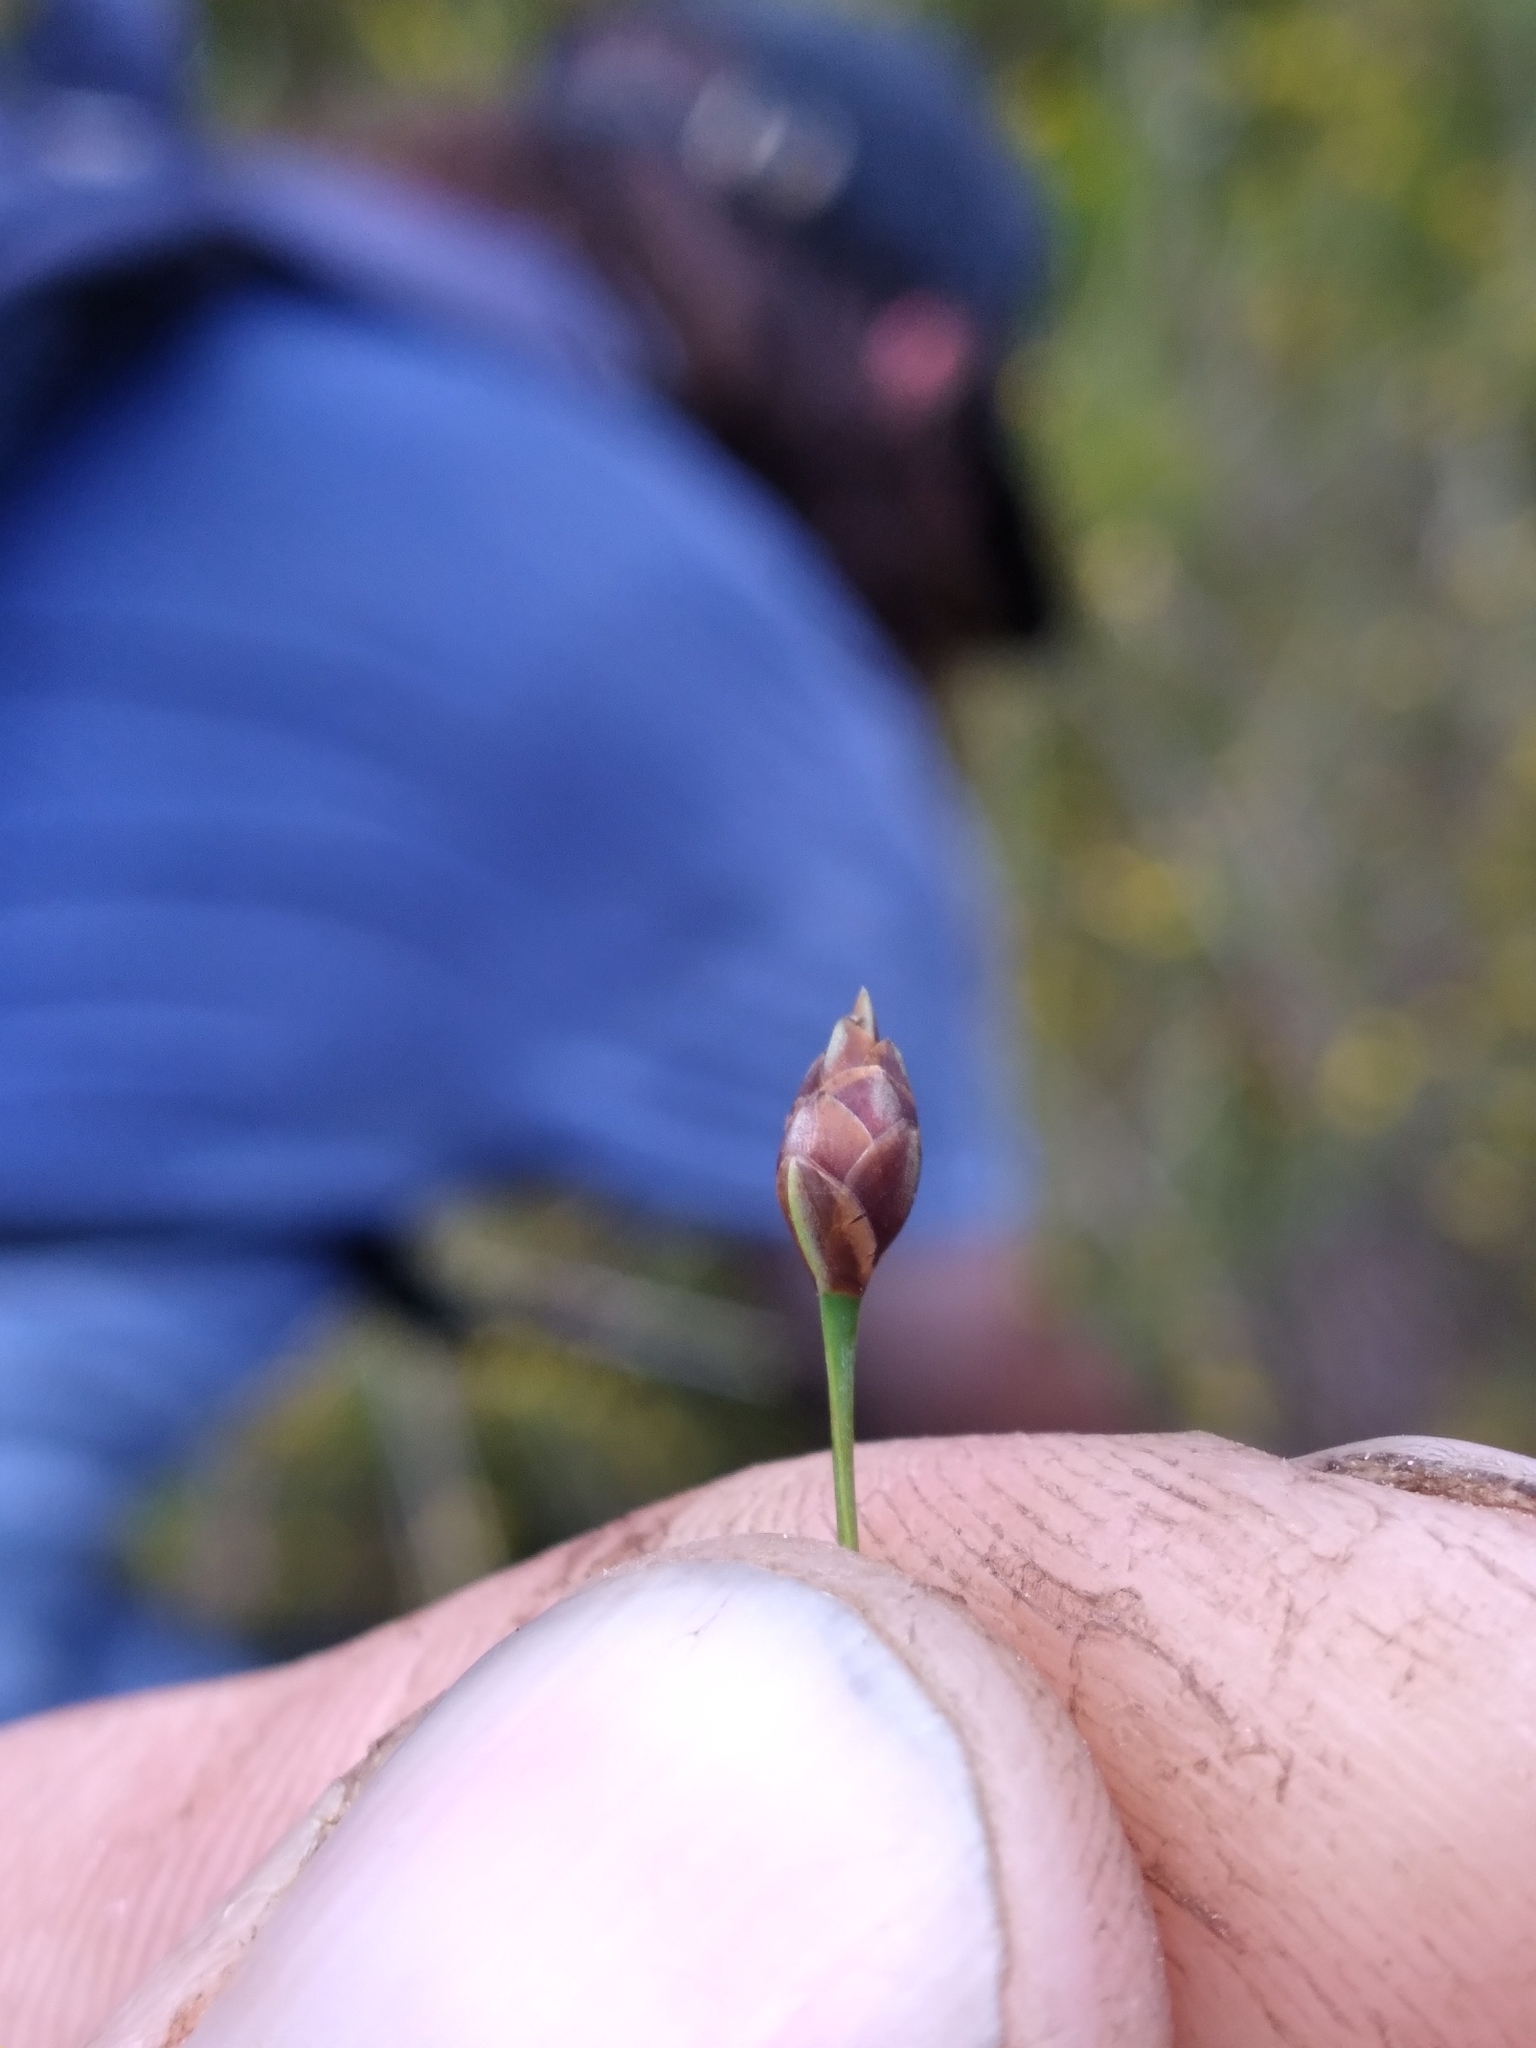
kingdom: Plantae
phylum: Tracheophyta
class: Liliopsida
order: Poales
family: Xyridaceae
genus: Xyris
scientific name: Xyris drummondii
